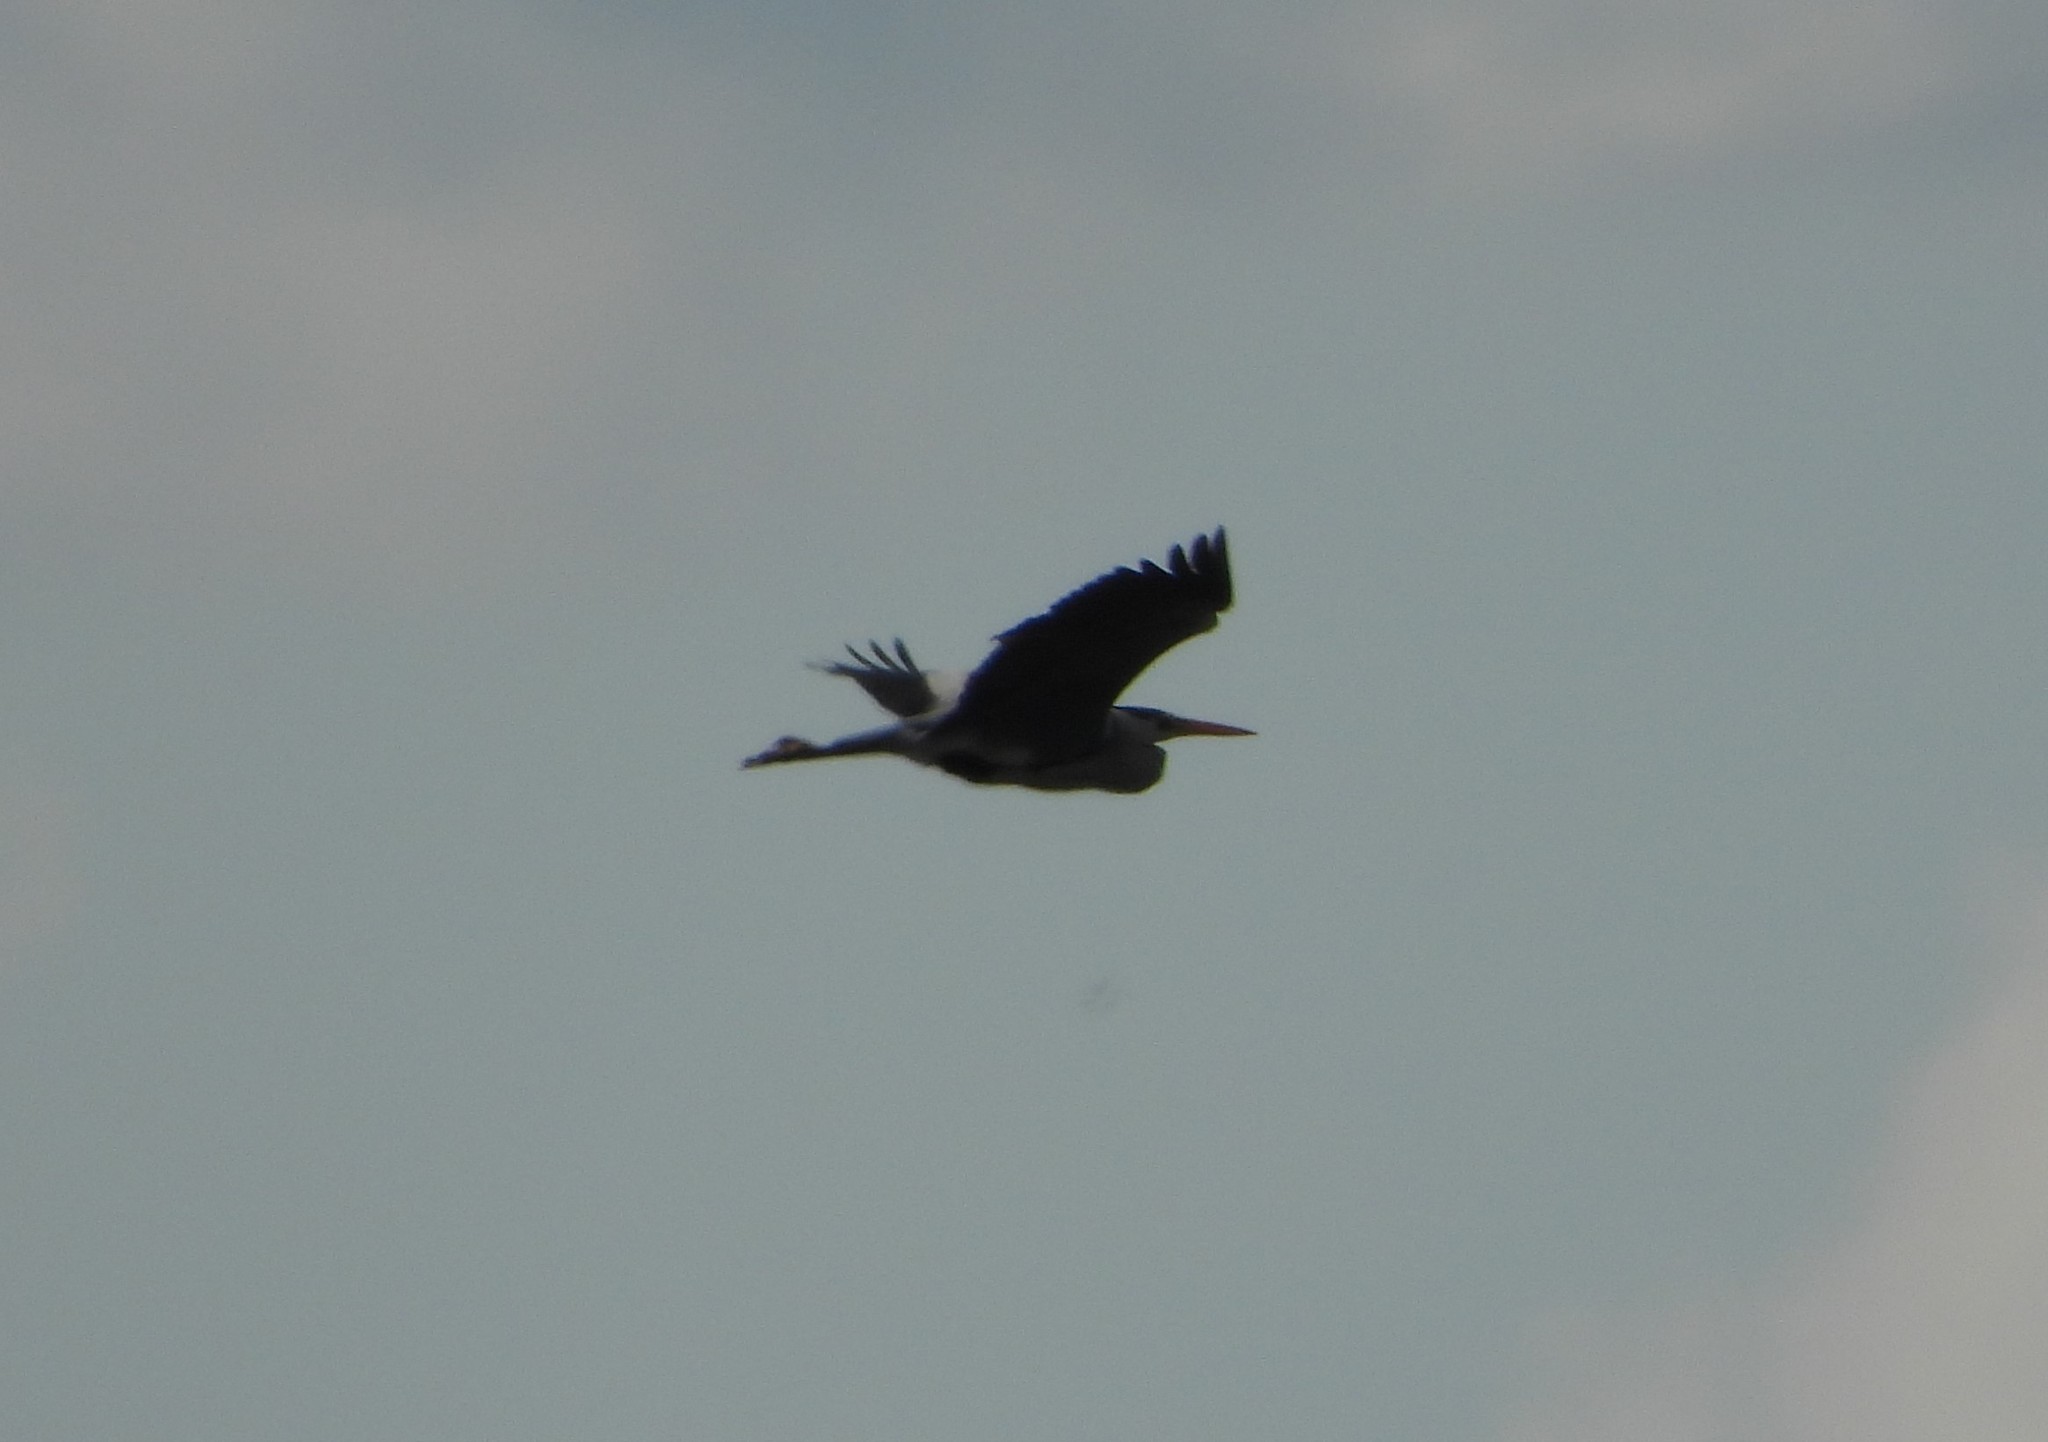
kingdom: Animalia
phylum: Chordata
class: Aves
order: Pelecaniformes
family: Ardeidae
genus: Ardea
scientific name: Ardea cinerea
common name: Grey heron
